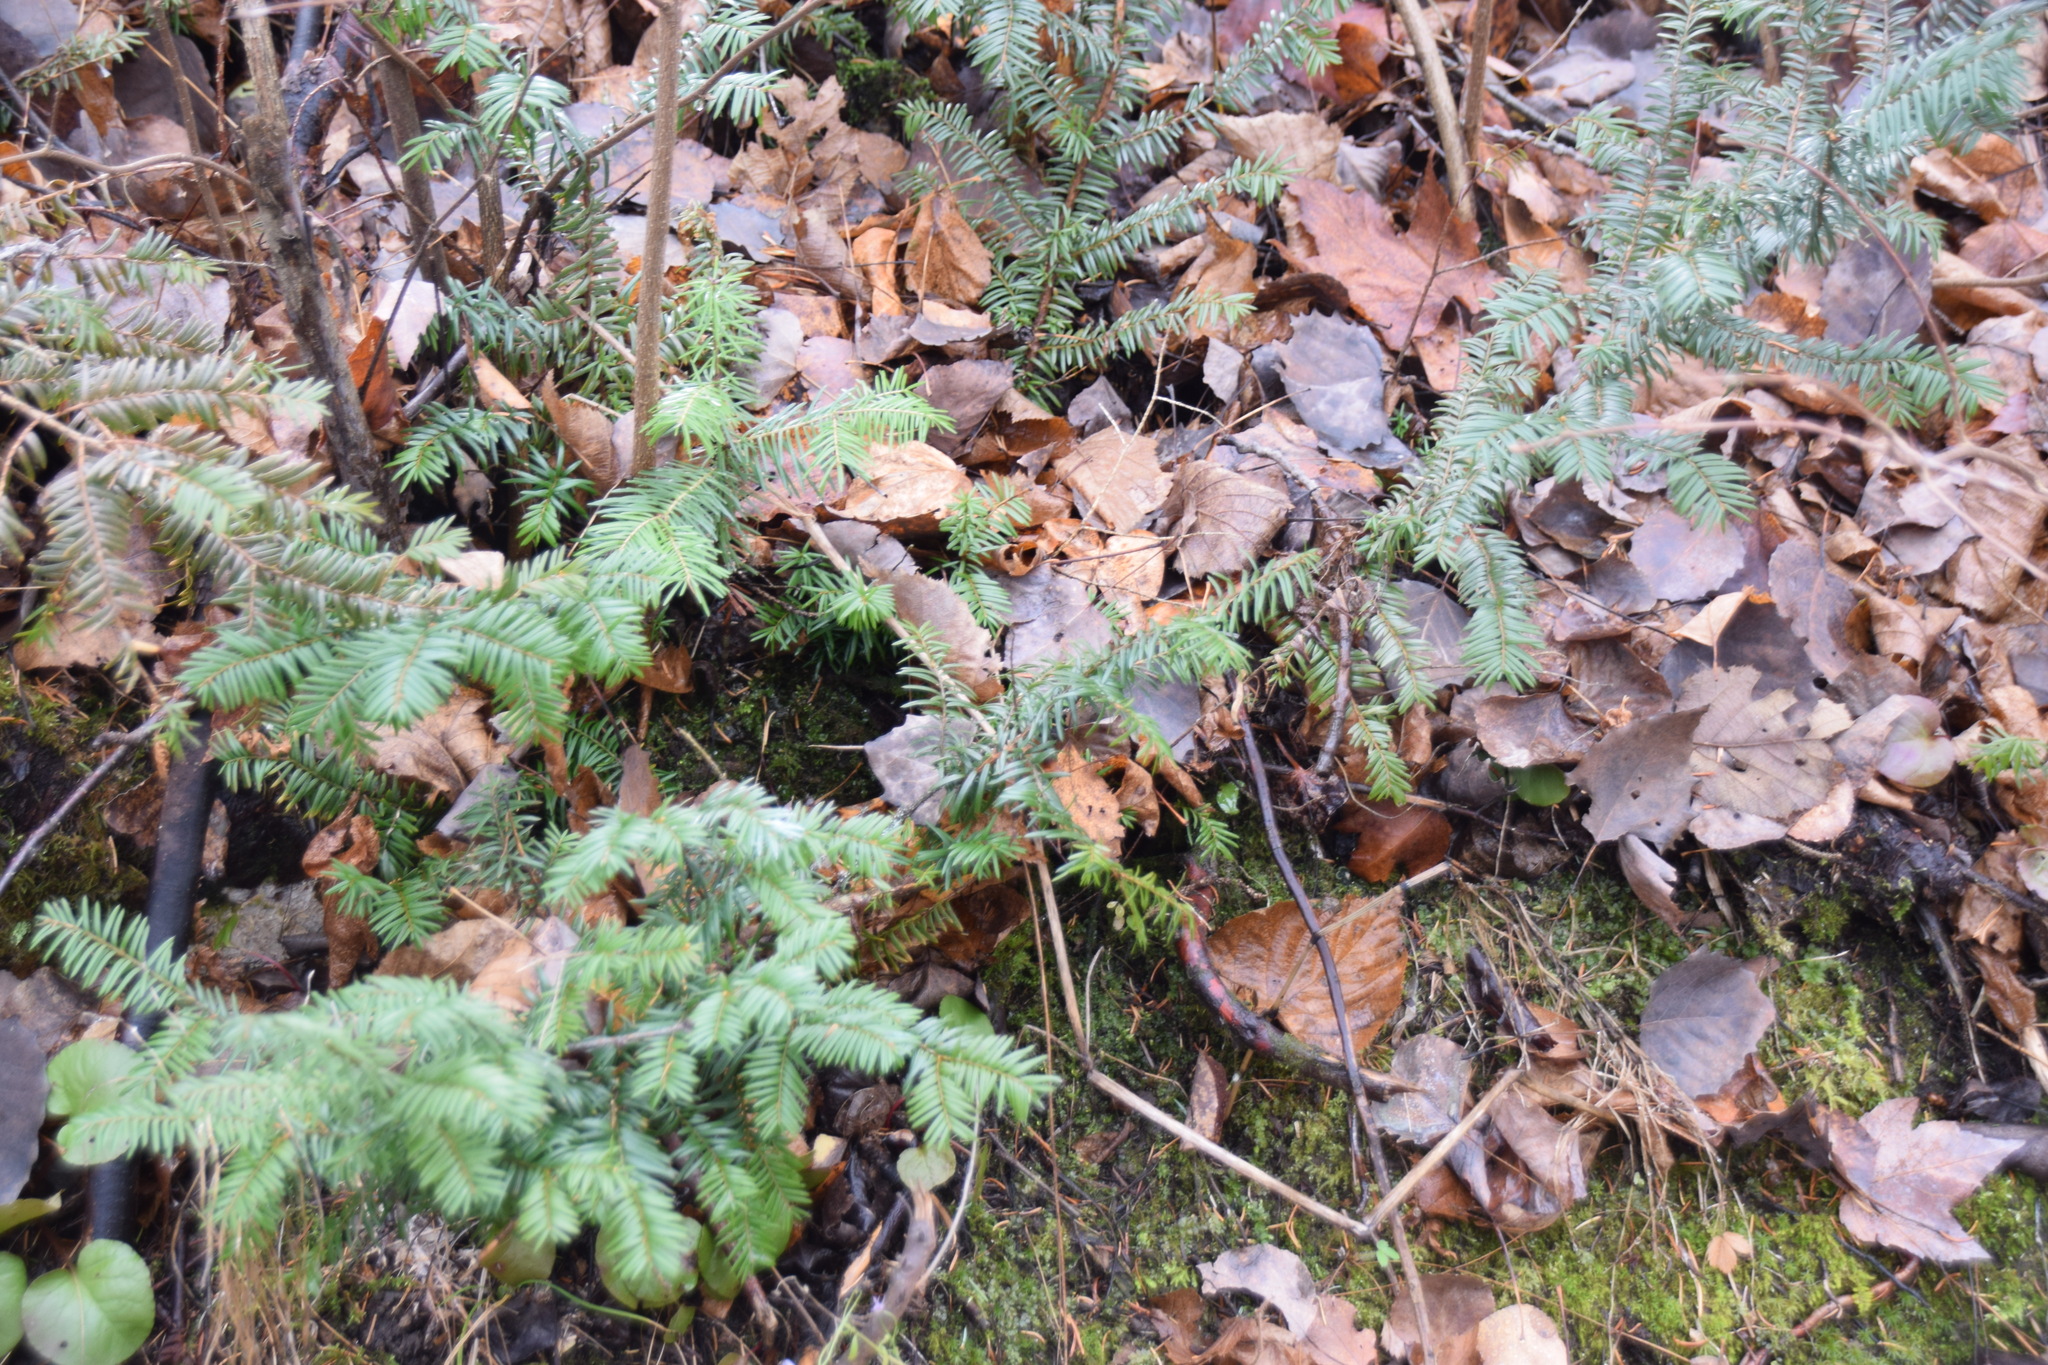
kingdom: Plantae
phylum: Tracheophyta
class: Pinopsida
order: Pinales
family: Taxaceae
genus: Taxus
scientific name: Taxus canadensis
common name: American yew
